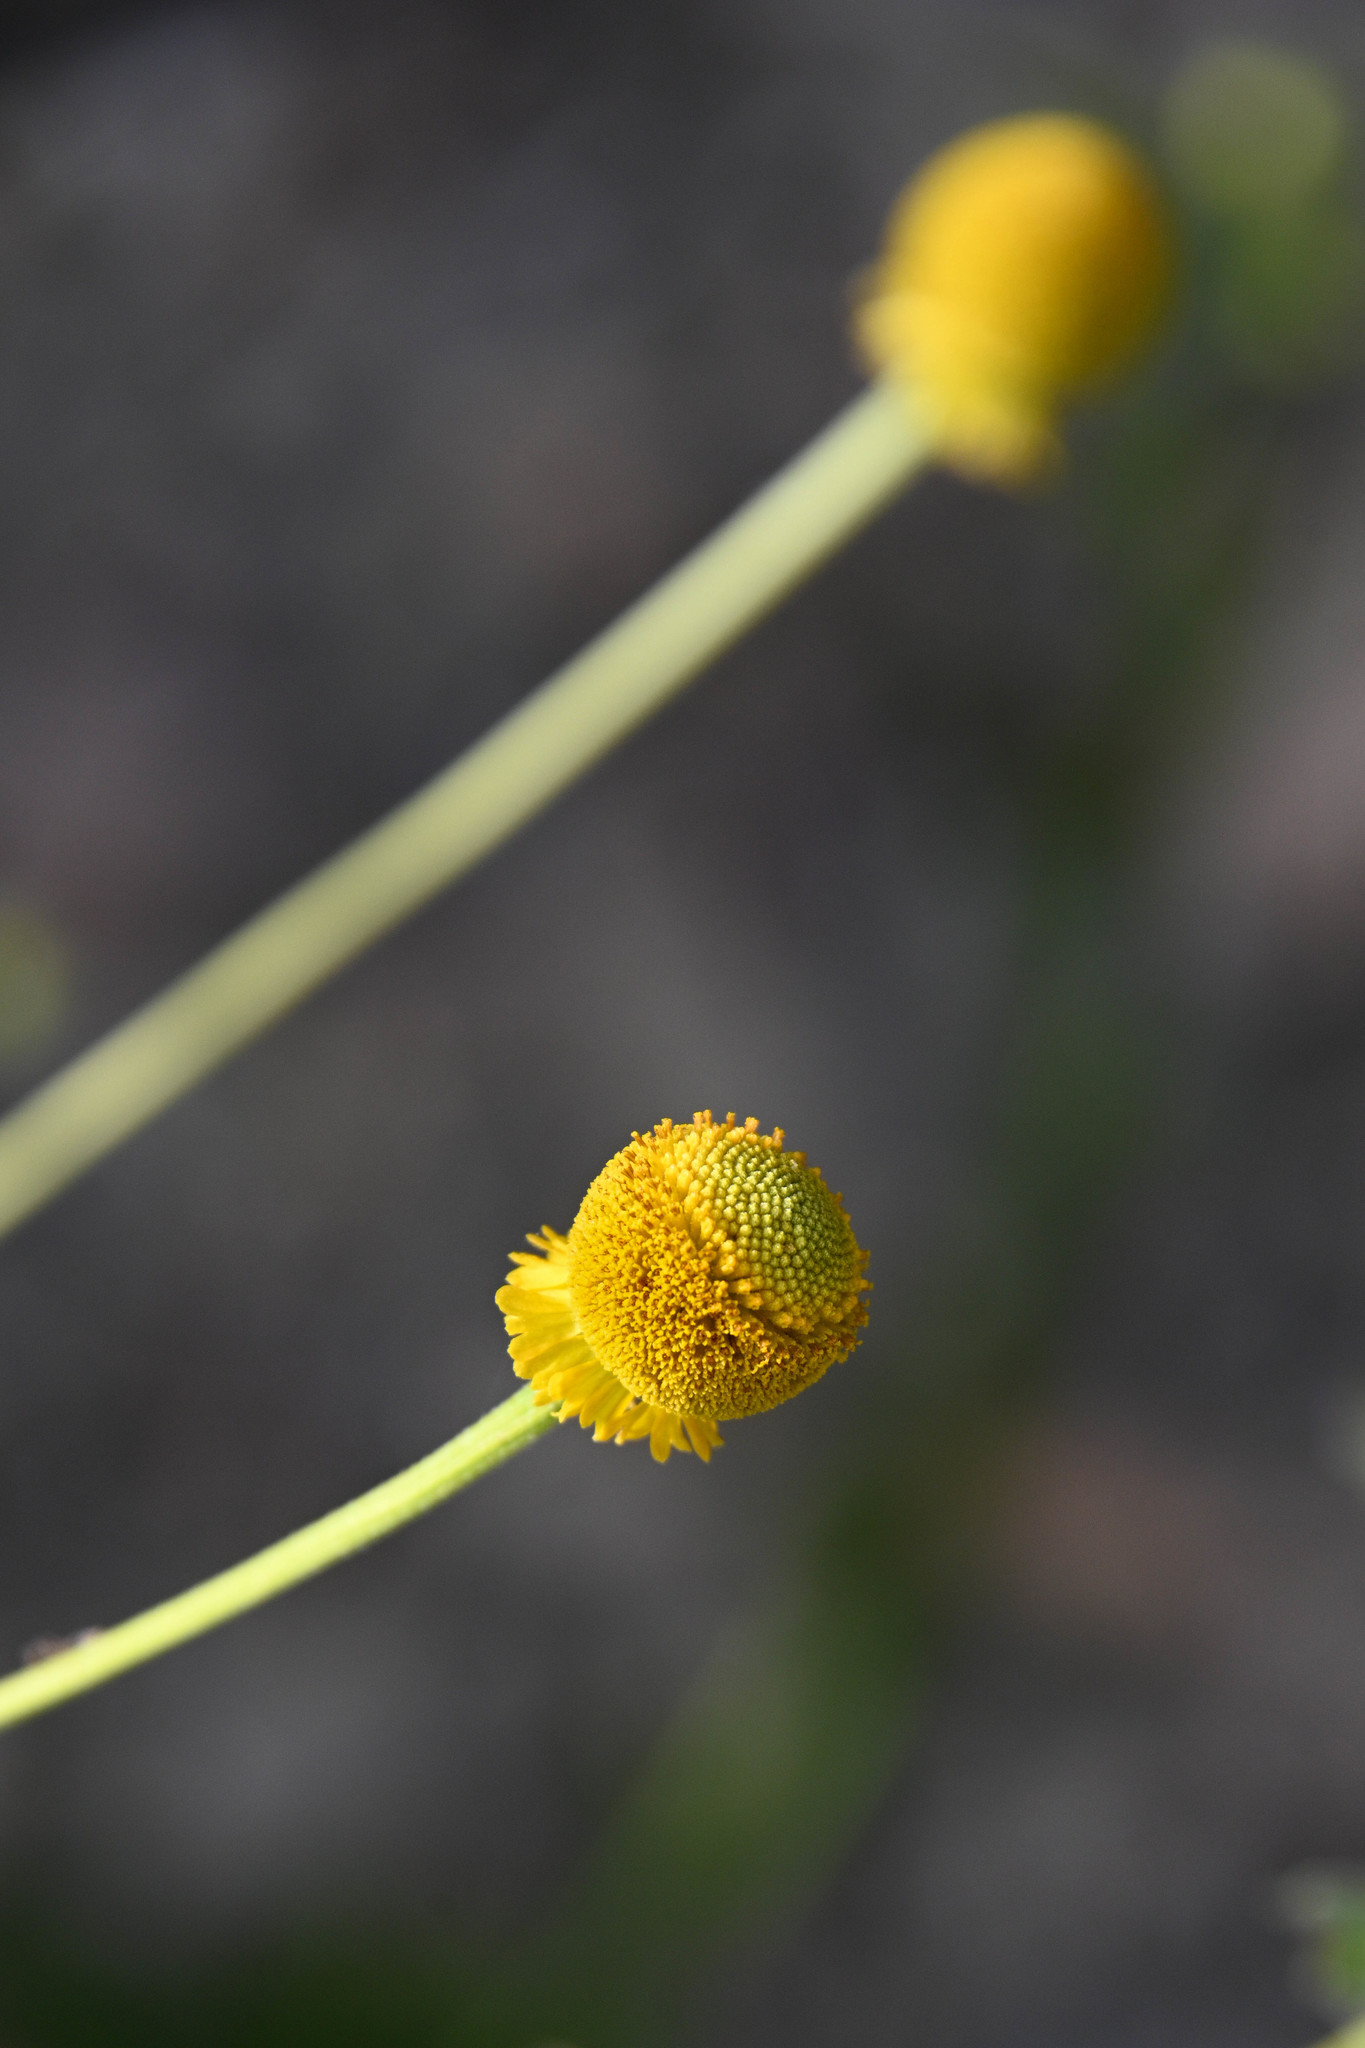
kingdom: Plantae
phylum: Tracheophyta
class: Magnoliopsida
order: Asterales
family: Asteraceae
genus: Helenium
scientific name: Helenium puberulum
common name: Sneezewort
